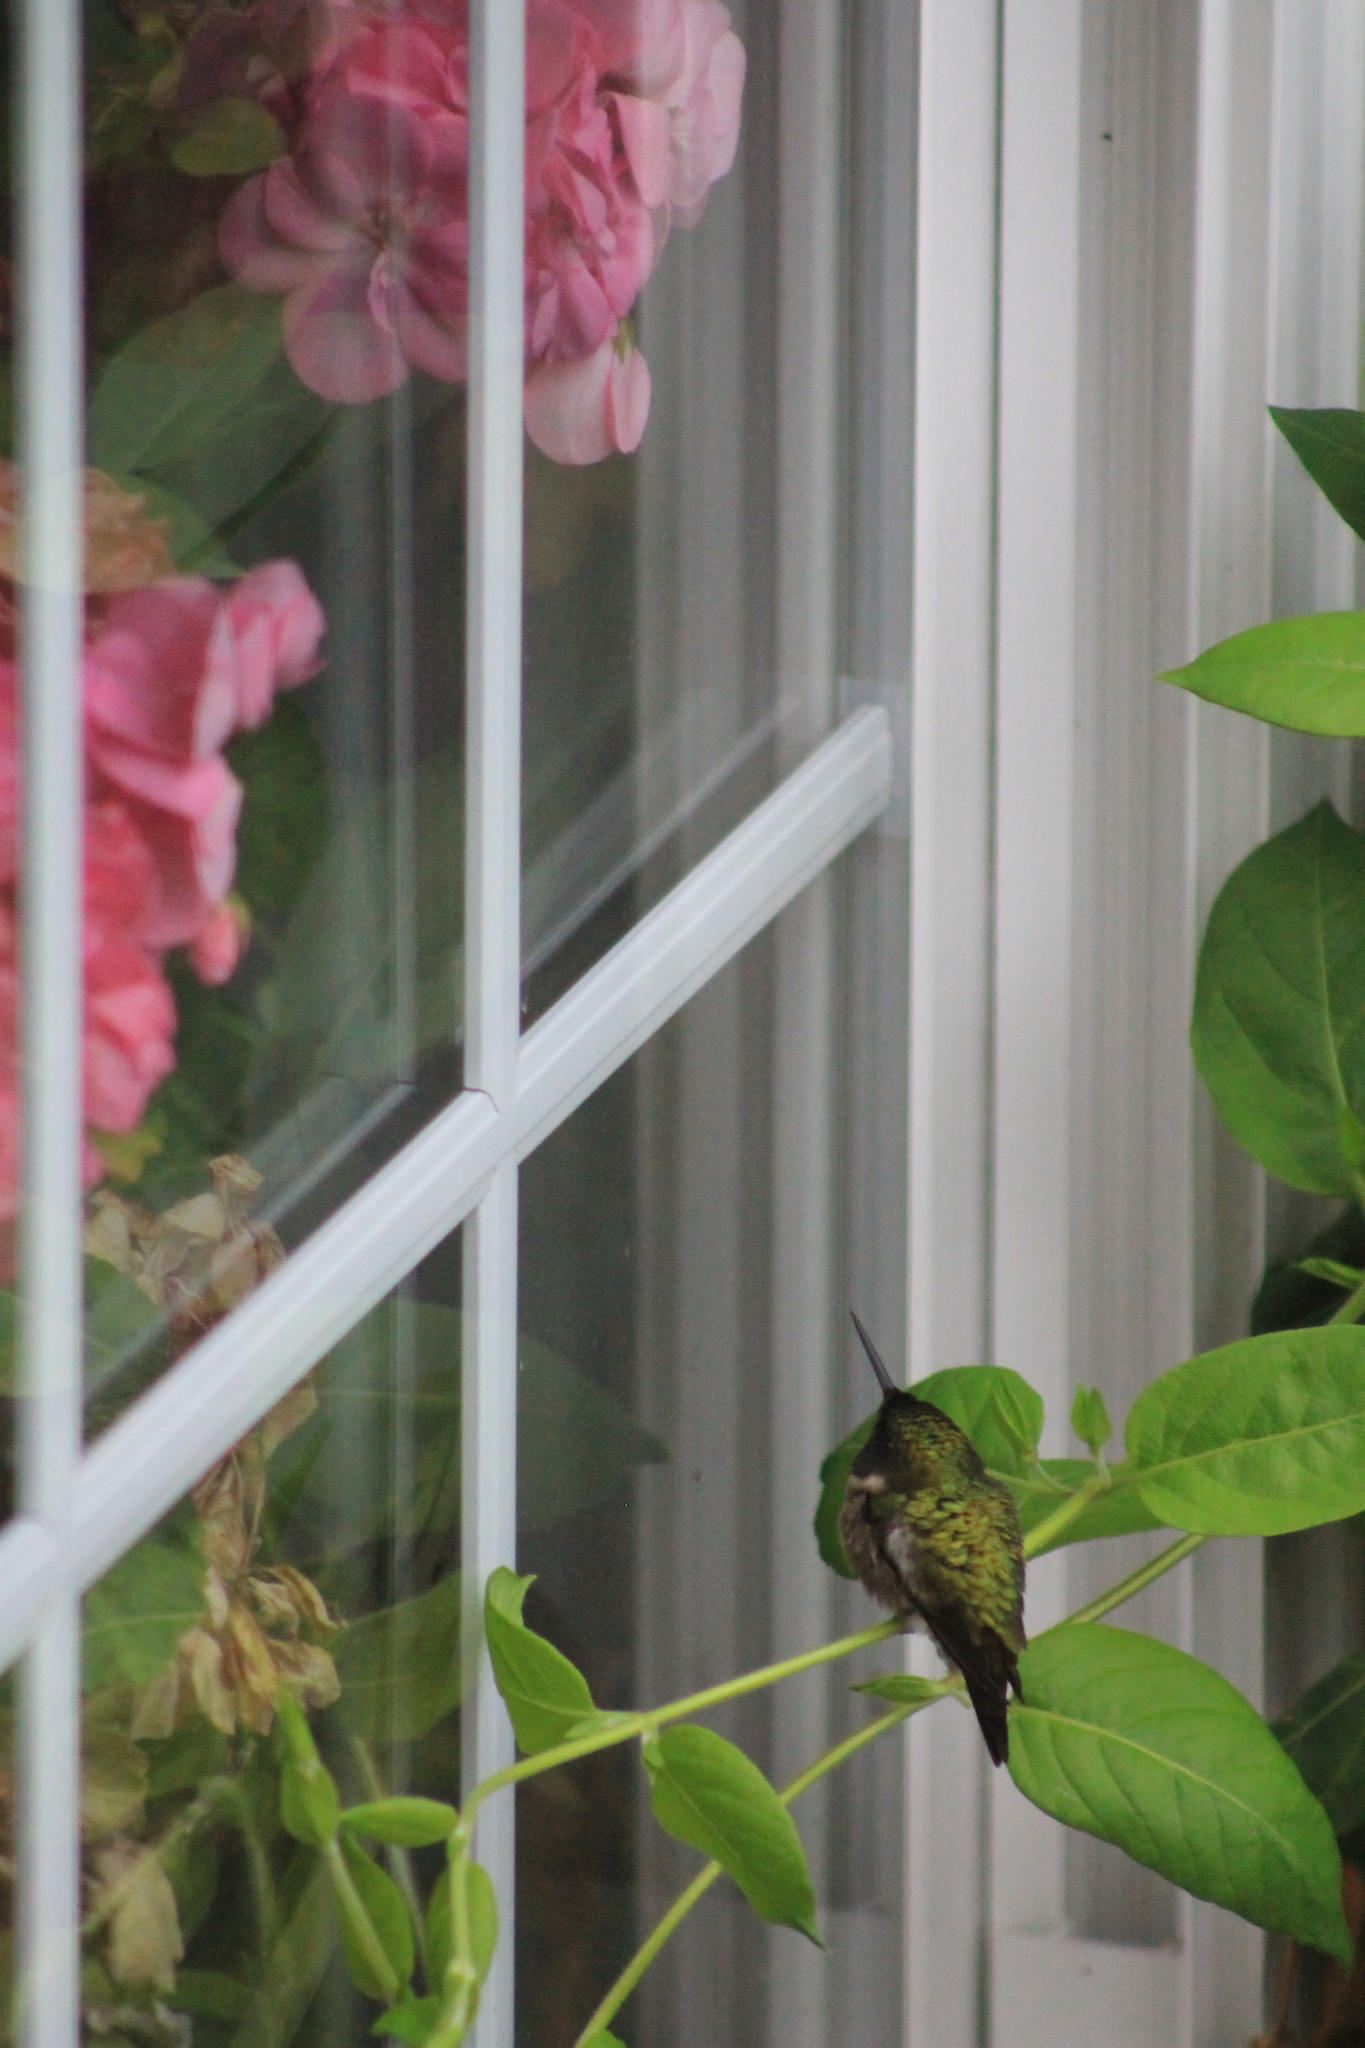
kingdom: Animalia
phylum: Chordata
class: Aves
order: Apodiformes
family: Trochilidae
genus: Archilochus
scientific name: Archilochus colubris
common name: Ruby-throated hummingbird
